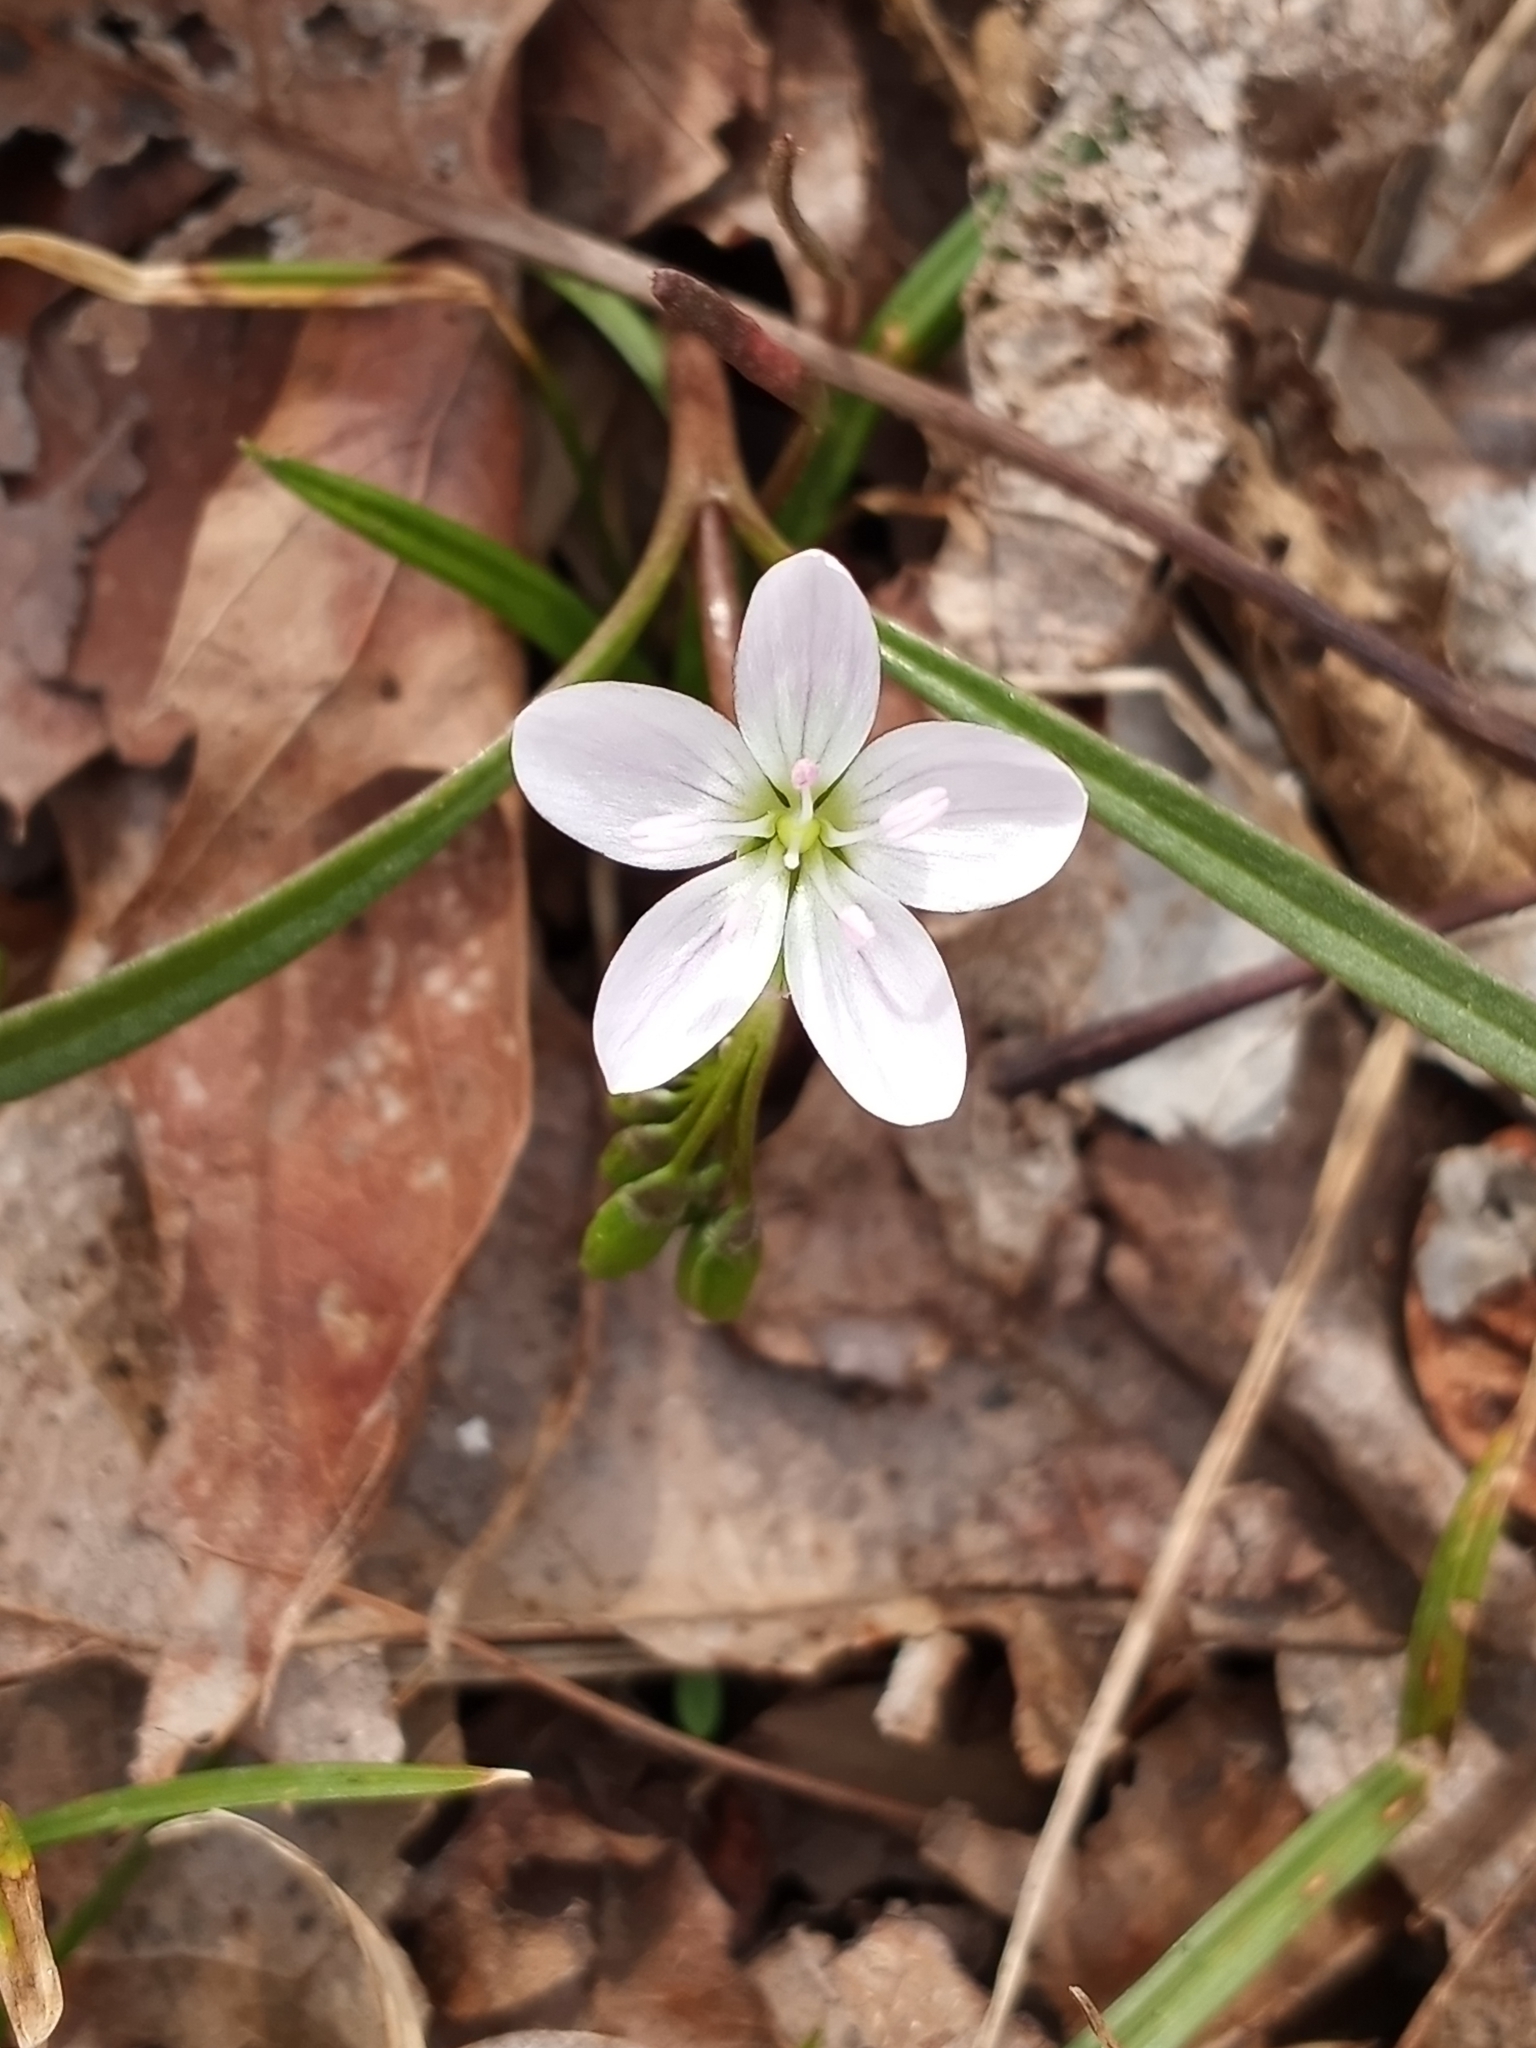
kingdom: Plantae
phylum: Tracheophyta
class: Magnoliopsida
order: Caryophyllales
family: Montiaceae
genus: Claytonia
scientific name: Claytonia virginica
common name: Virginia springbeauty
